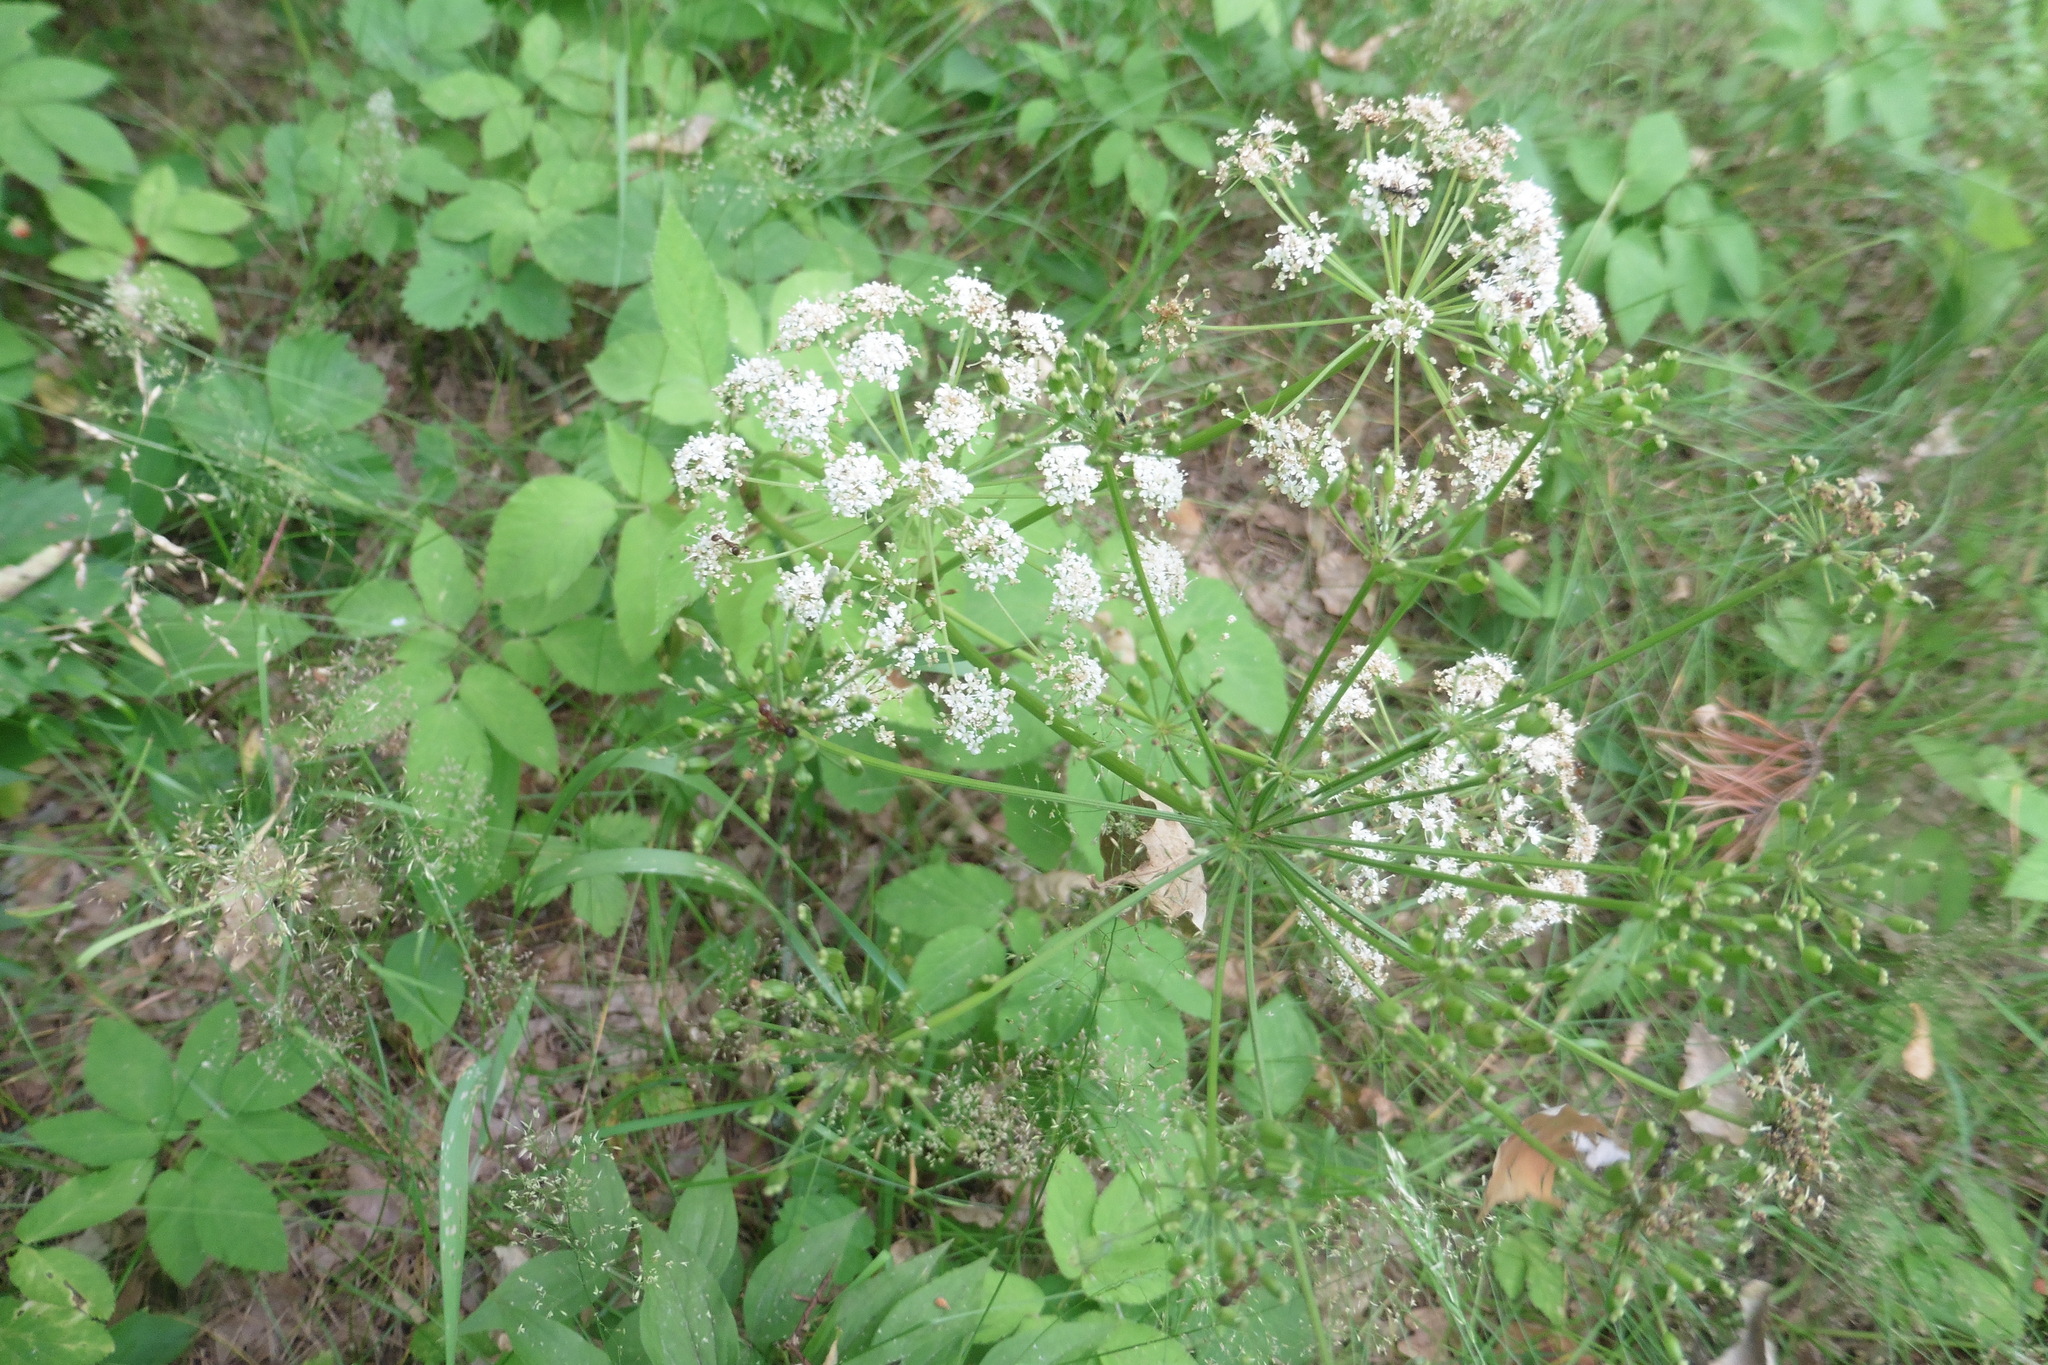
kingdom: Plantae
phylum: Tracheophyta
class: Magnoliopsida
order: Apiales
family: Apiaceae
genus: Aegopodium
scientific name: Aegopodium podagraria
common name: Ground-elder
